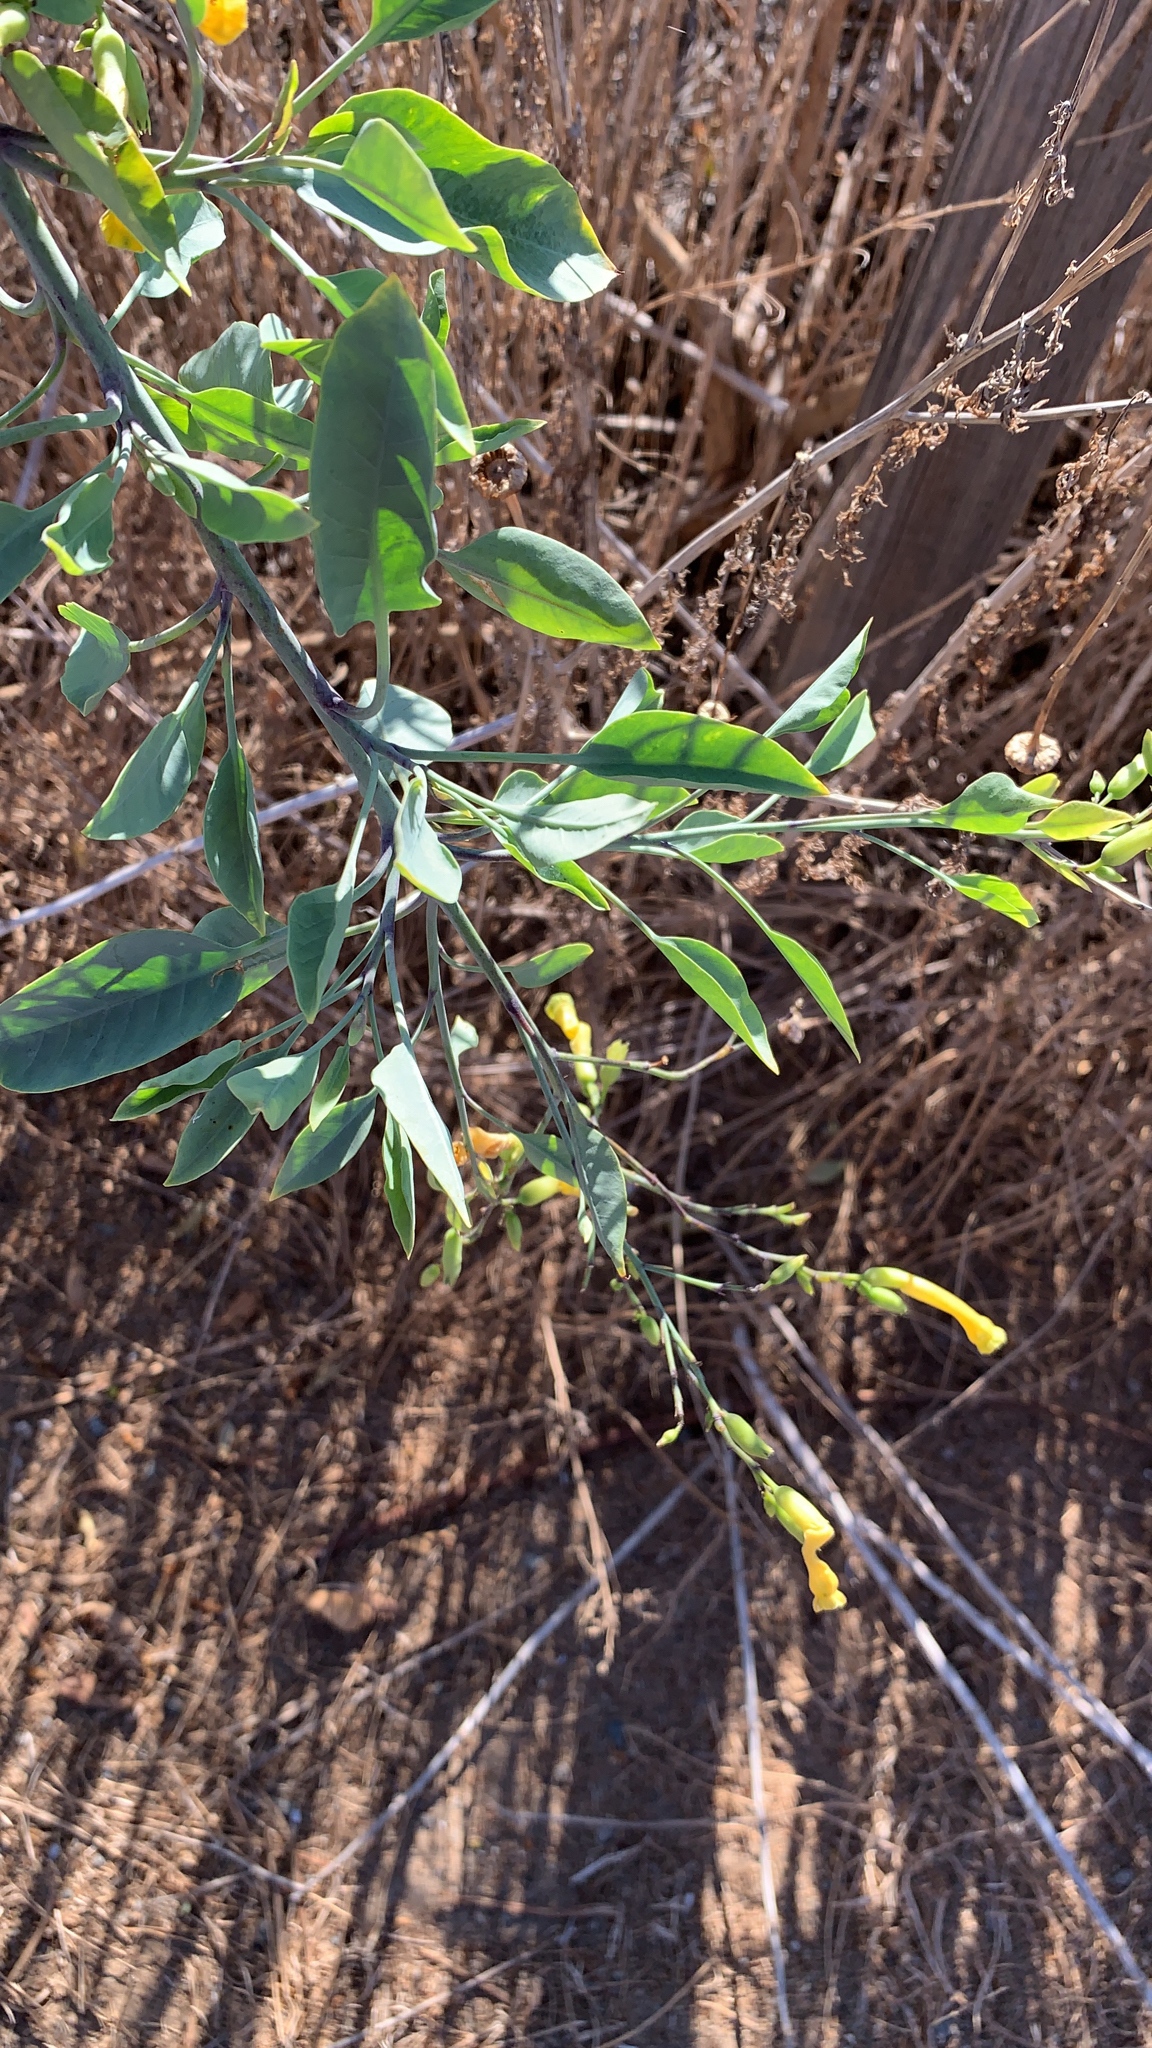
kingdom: Plantae
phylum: Tracheophyta
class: Magnoliopsida
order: Solanales
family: Solanaceae
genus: Nicotiana
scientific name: Nicotiana glauca
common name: Tree tobacco
